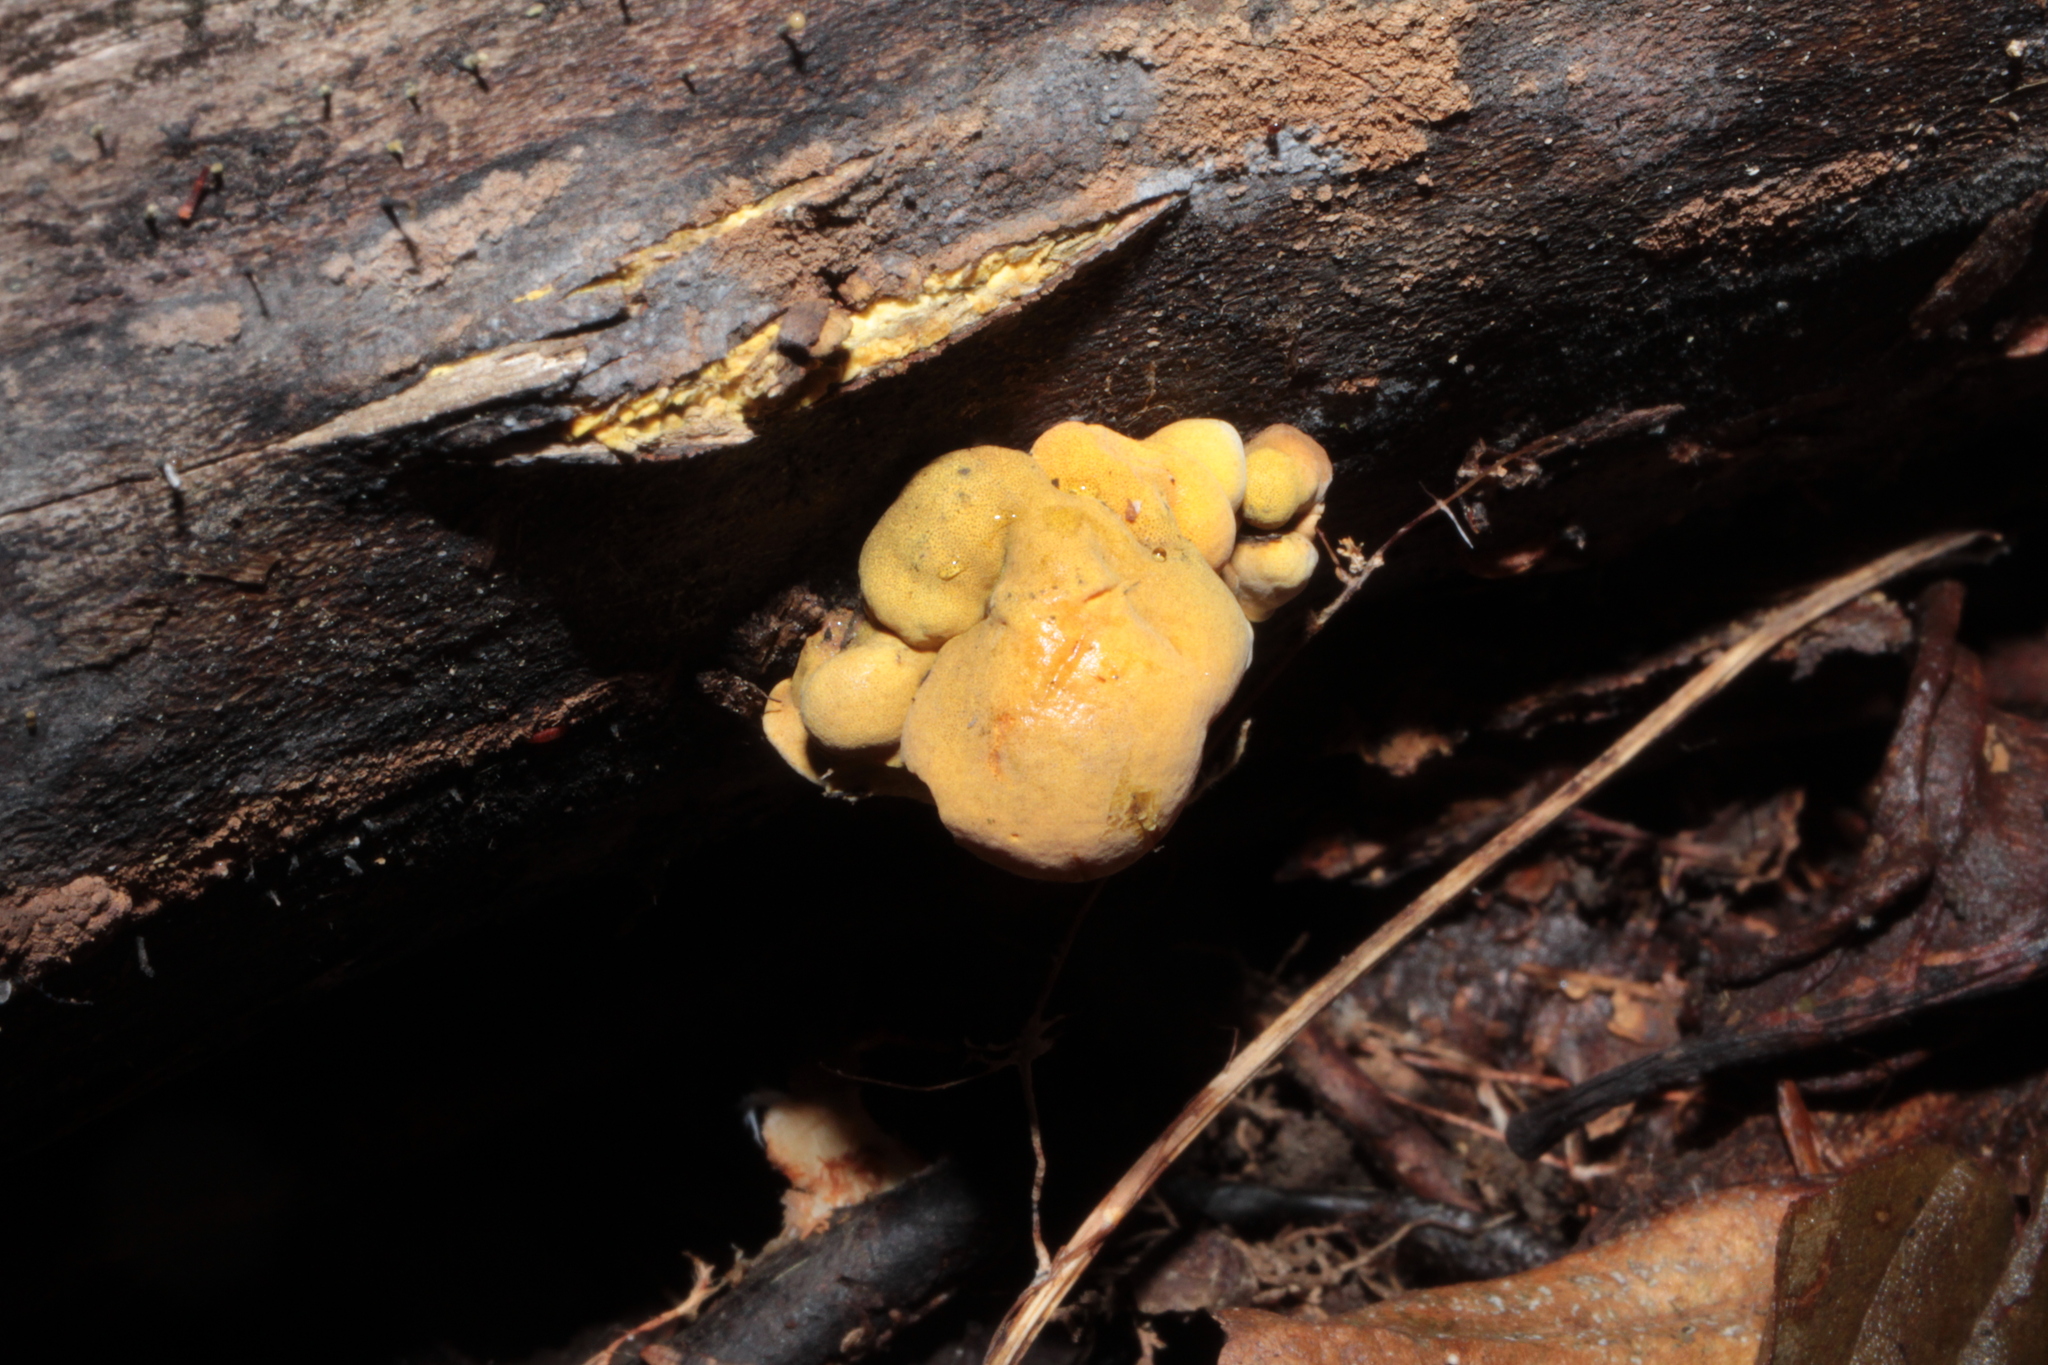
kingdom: Fungi
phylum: Ascomycota
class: Sordariomycetes
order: Xylariales
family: Hypoxylaceae
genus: Thuemenella
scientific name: Thuemenella cubispora
